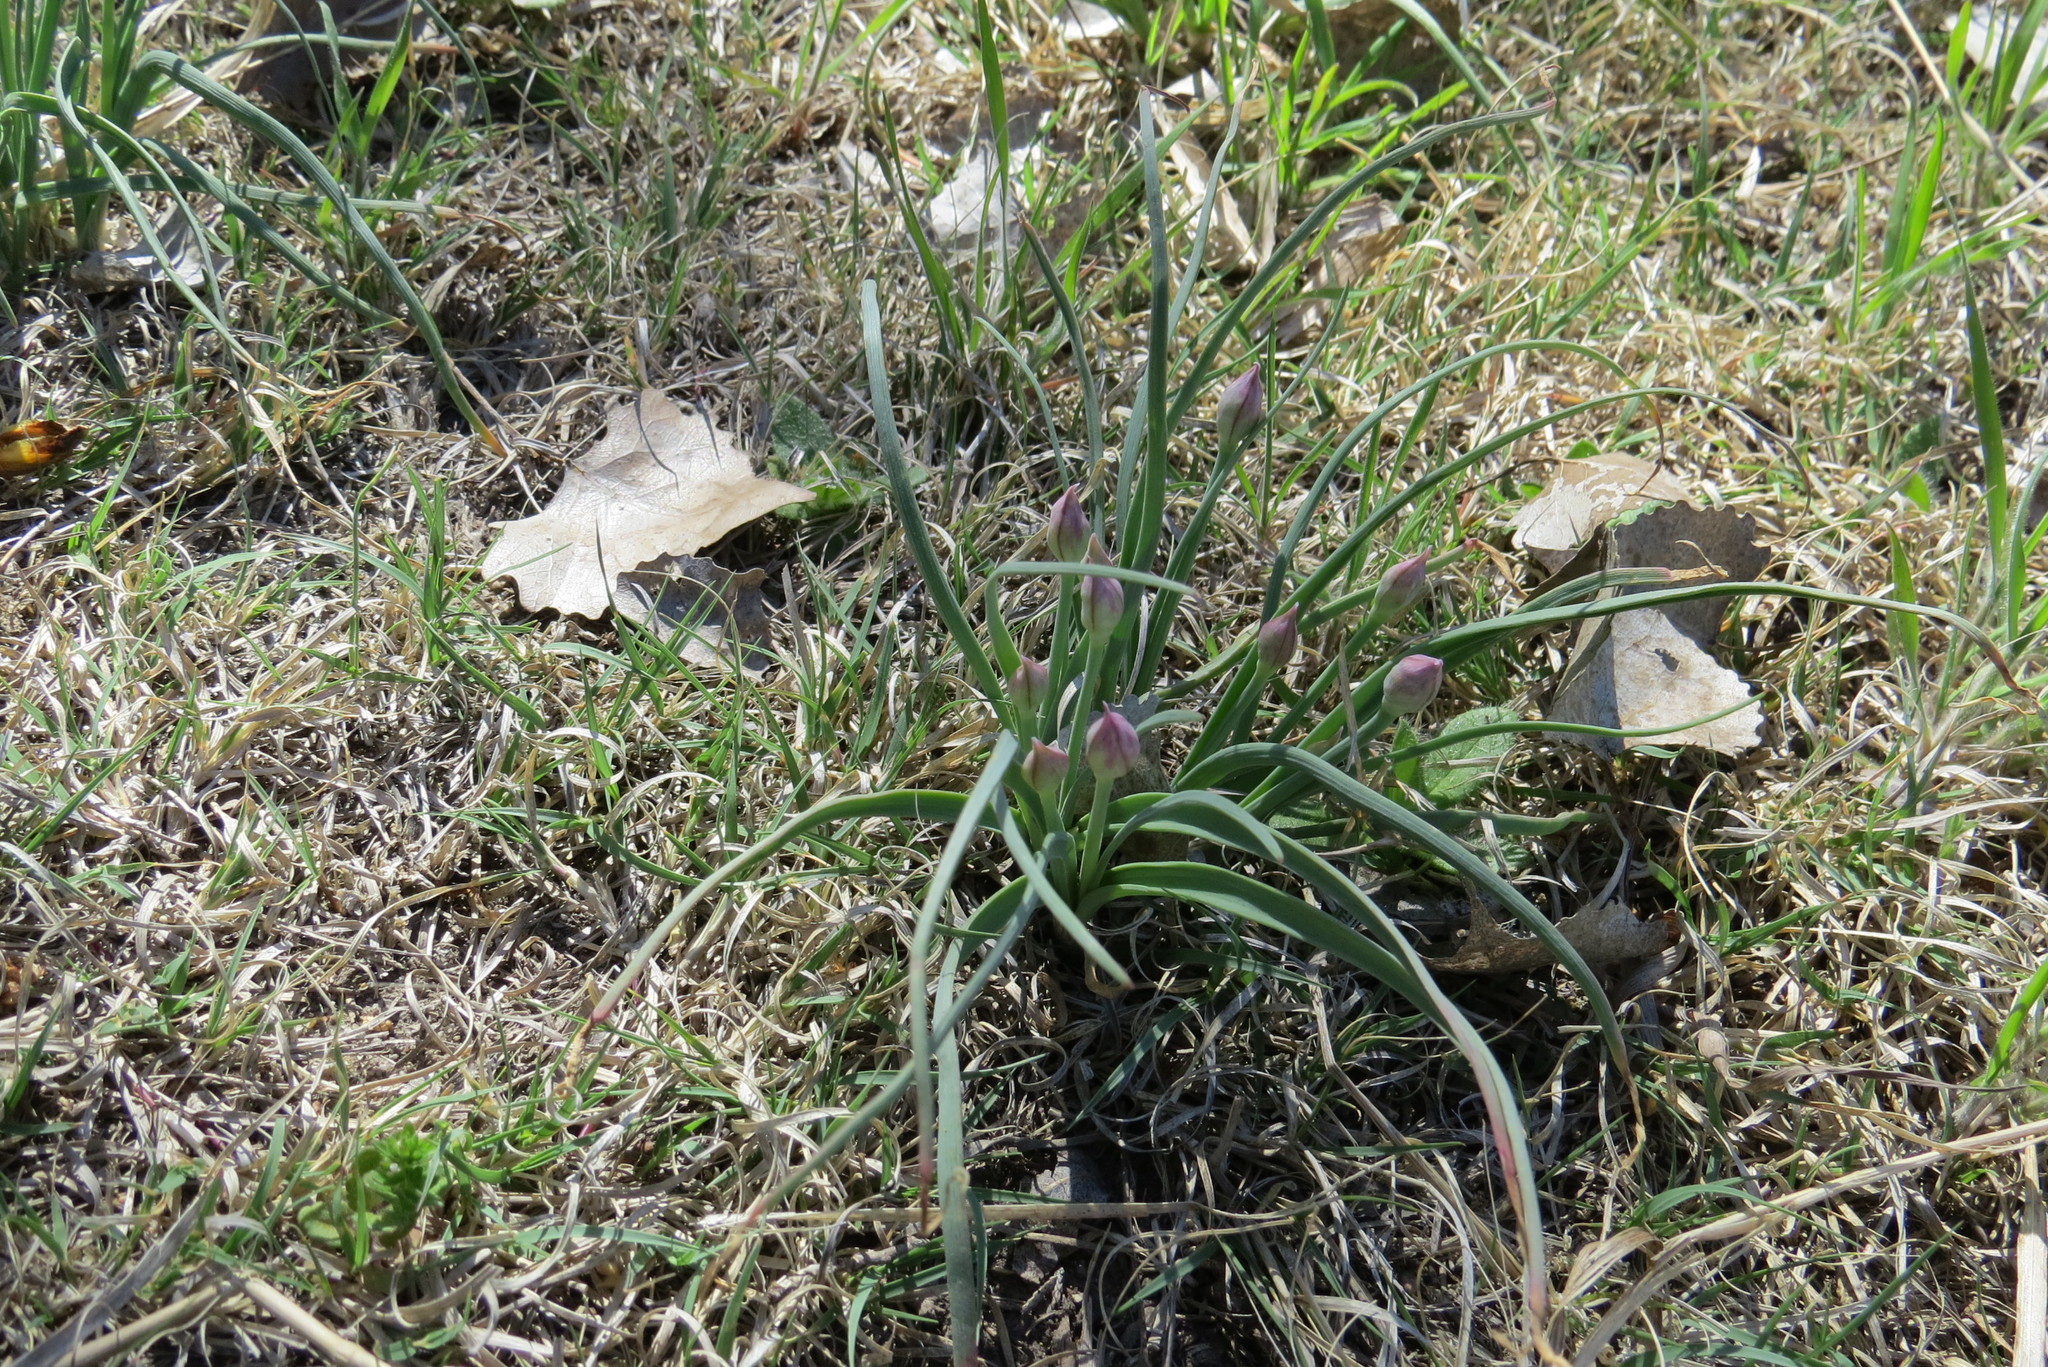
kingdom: Plantae
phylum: Tracheophyta
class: Liliopsida
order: Asparagales
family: Amaryllidaceae
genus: Allium
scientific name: Allium drummondii
